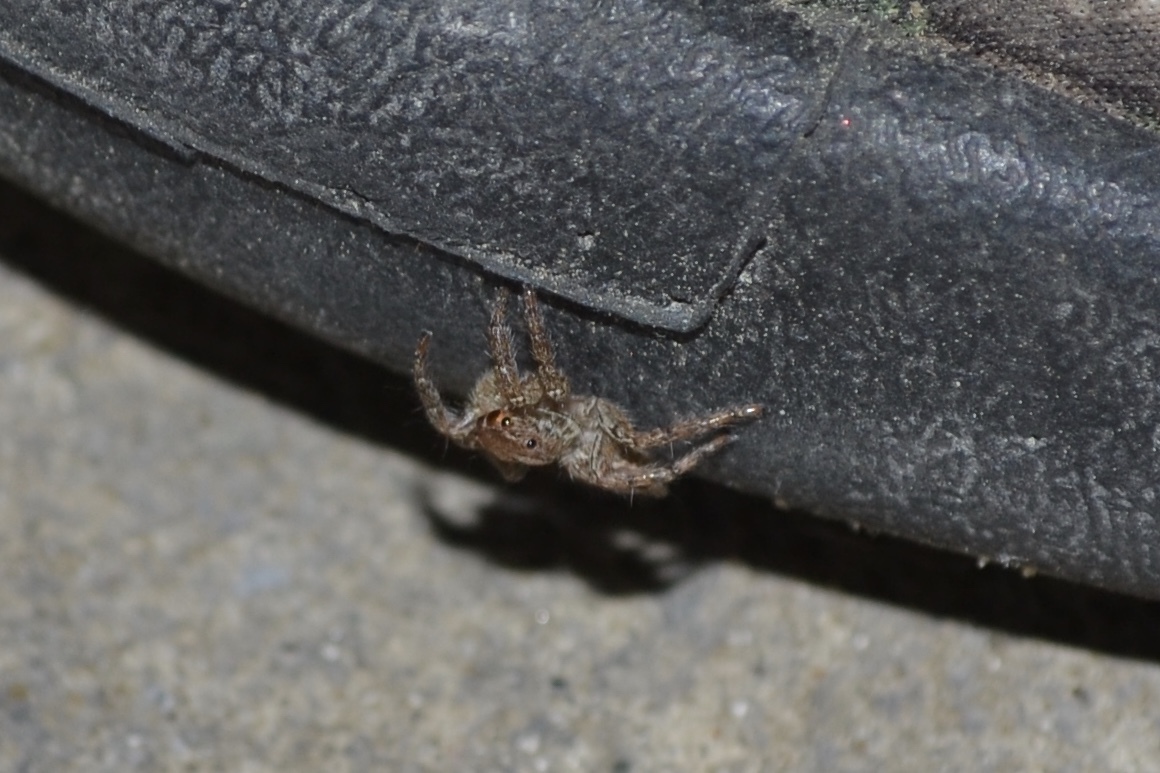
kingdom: Animalia
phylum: Arthropoda
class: Arachnida
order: Araneae
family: Salticidae
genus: Plexippus
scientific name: Plexippus paykulli
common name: Pantropical jumper
